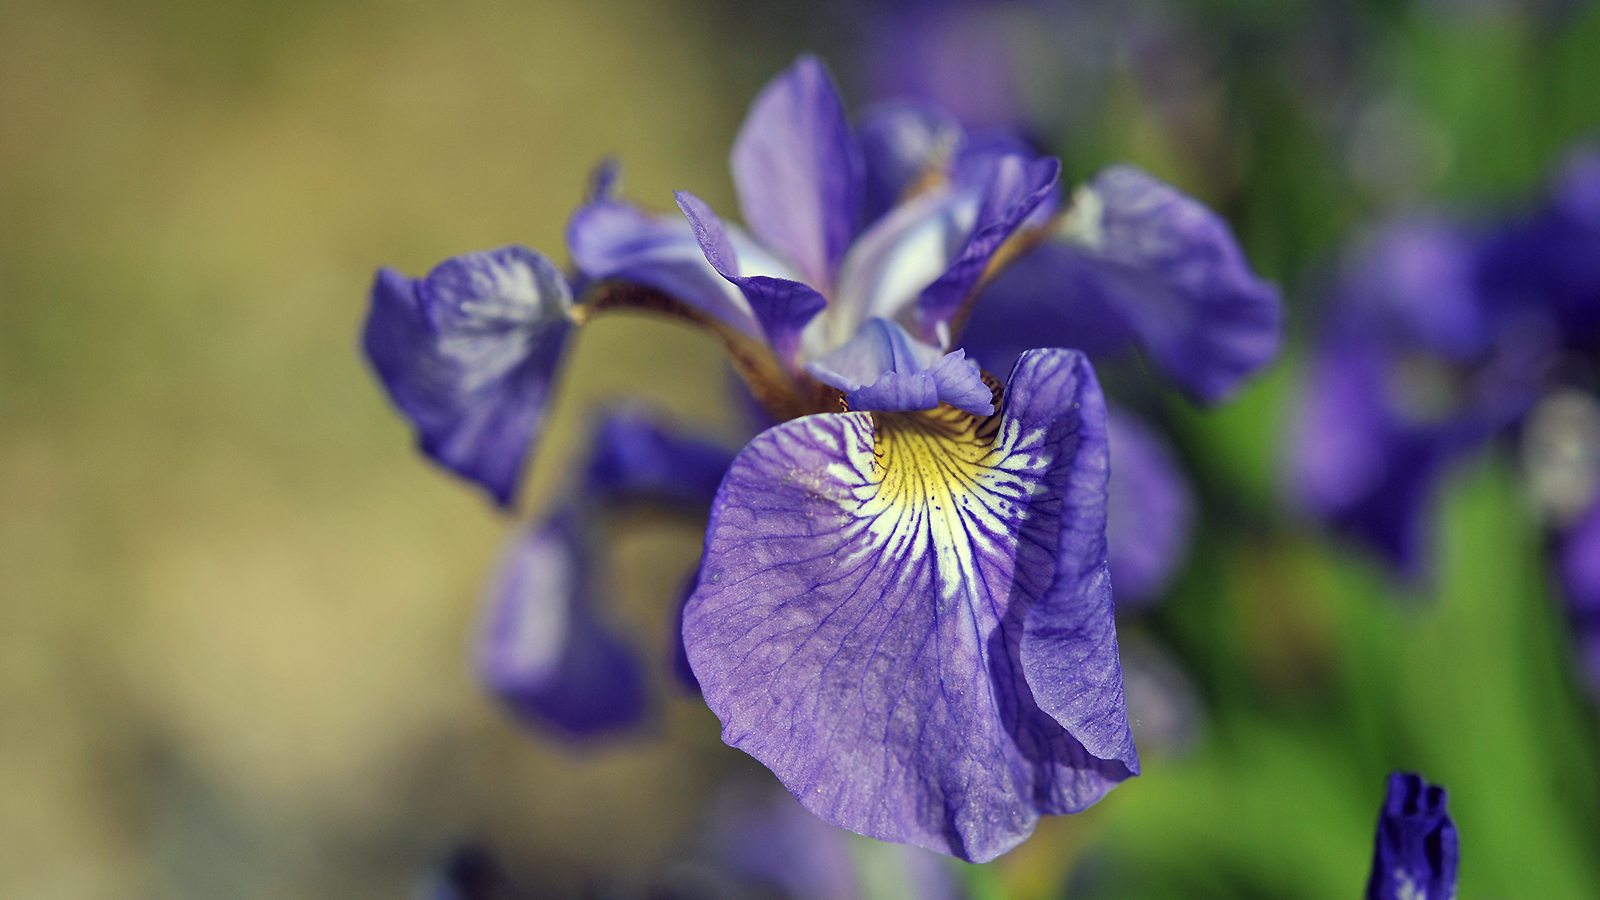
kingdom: Plantae
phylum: Tracheophyta
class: Liliopsida
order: Asparagales
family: Iridaceae
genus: Iris
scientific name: Iris setosa
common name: Arctic blue flag
